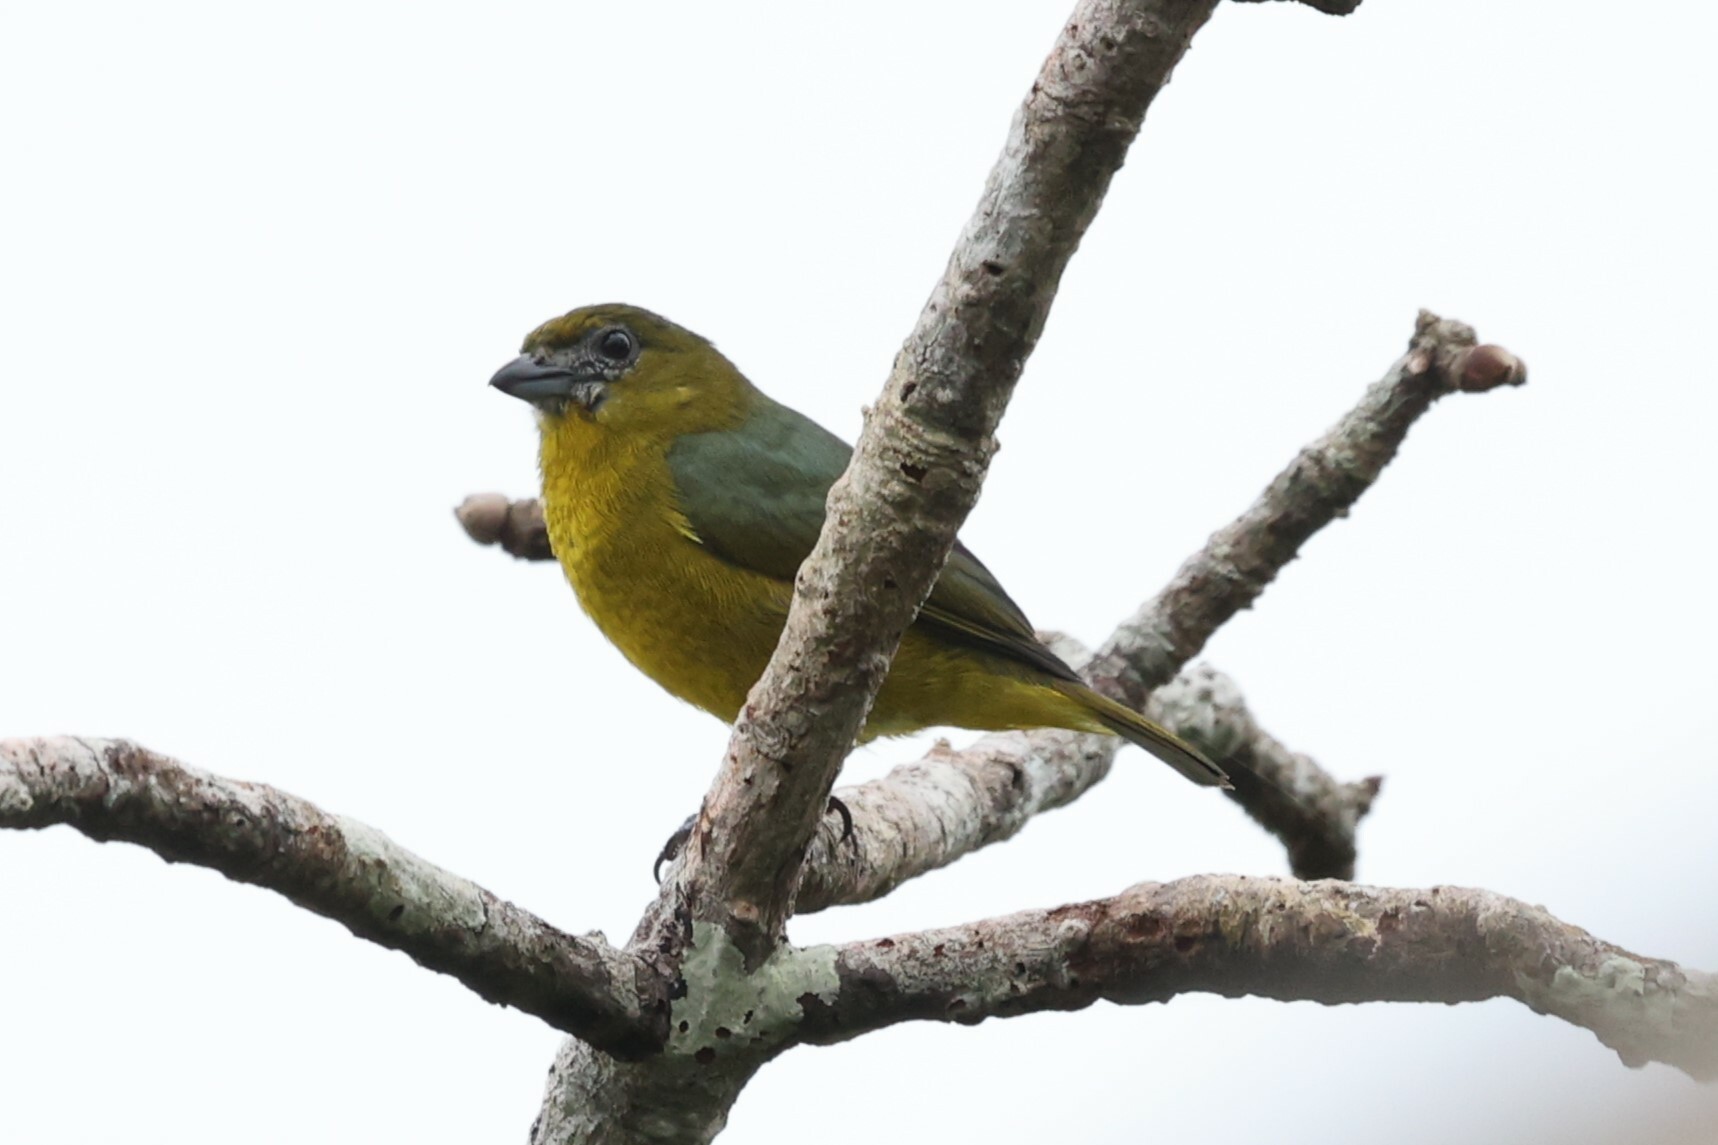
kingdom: Animalia
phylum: Chordata
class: Aves
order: Passeriformes
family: Fringillidae
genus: Euphonia
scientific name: Euphonia chrysopasta
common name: White-lored euphonia
